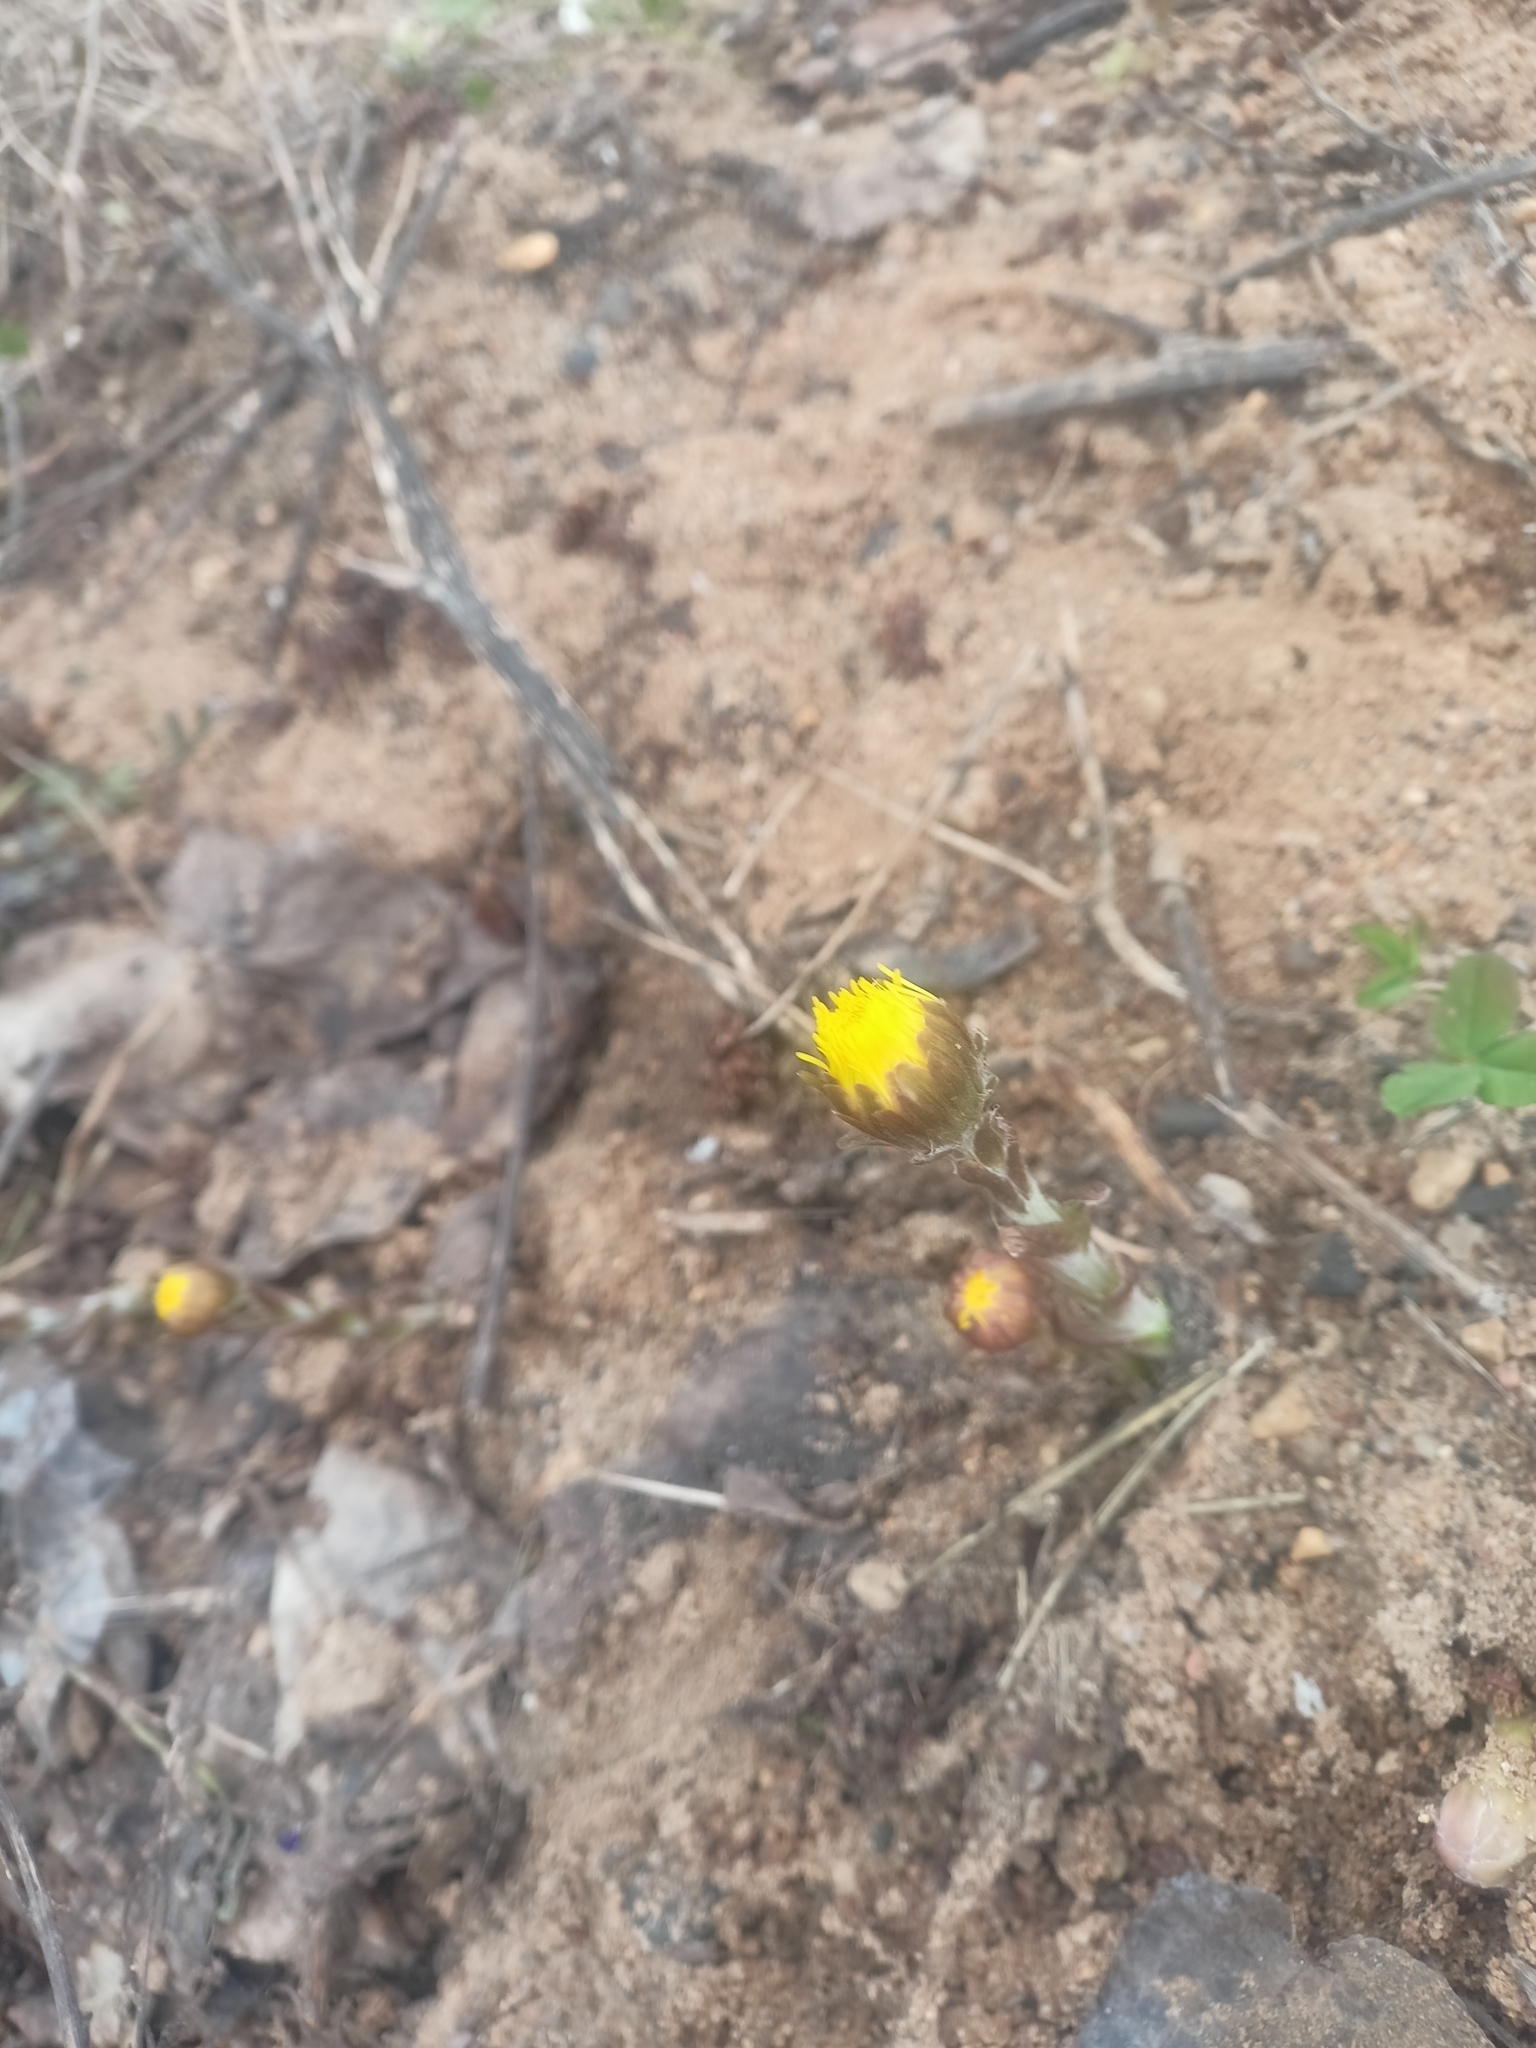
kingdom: Plantae
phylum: Tracheophyta
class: Magnoliopsida
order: Asterales
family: Asteraceae
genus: Tussilago
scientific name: Tussilago farfara
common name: Coltsfoot
